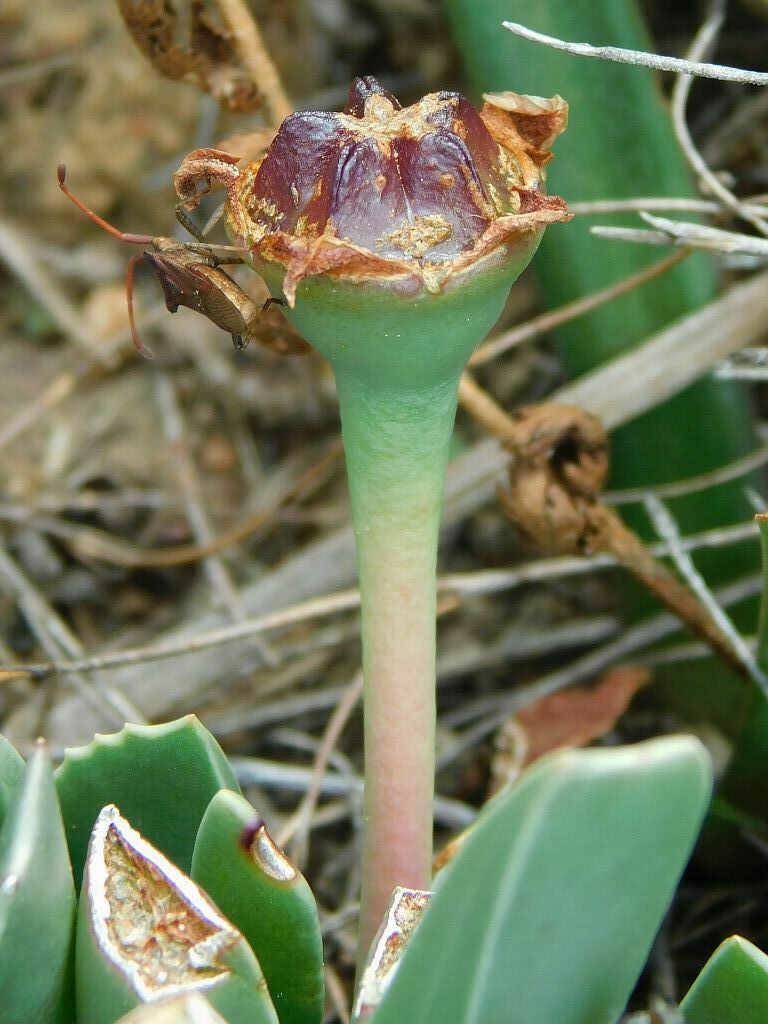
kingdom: Plantae
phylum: Tracheophyta
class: Magnoliopsida
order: Caryophyllales
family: Aizoaceae
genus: Brianhuntleya
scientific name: Brianhuntleya purpureostyla
